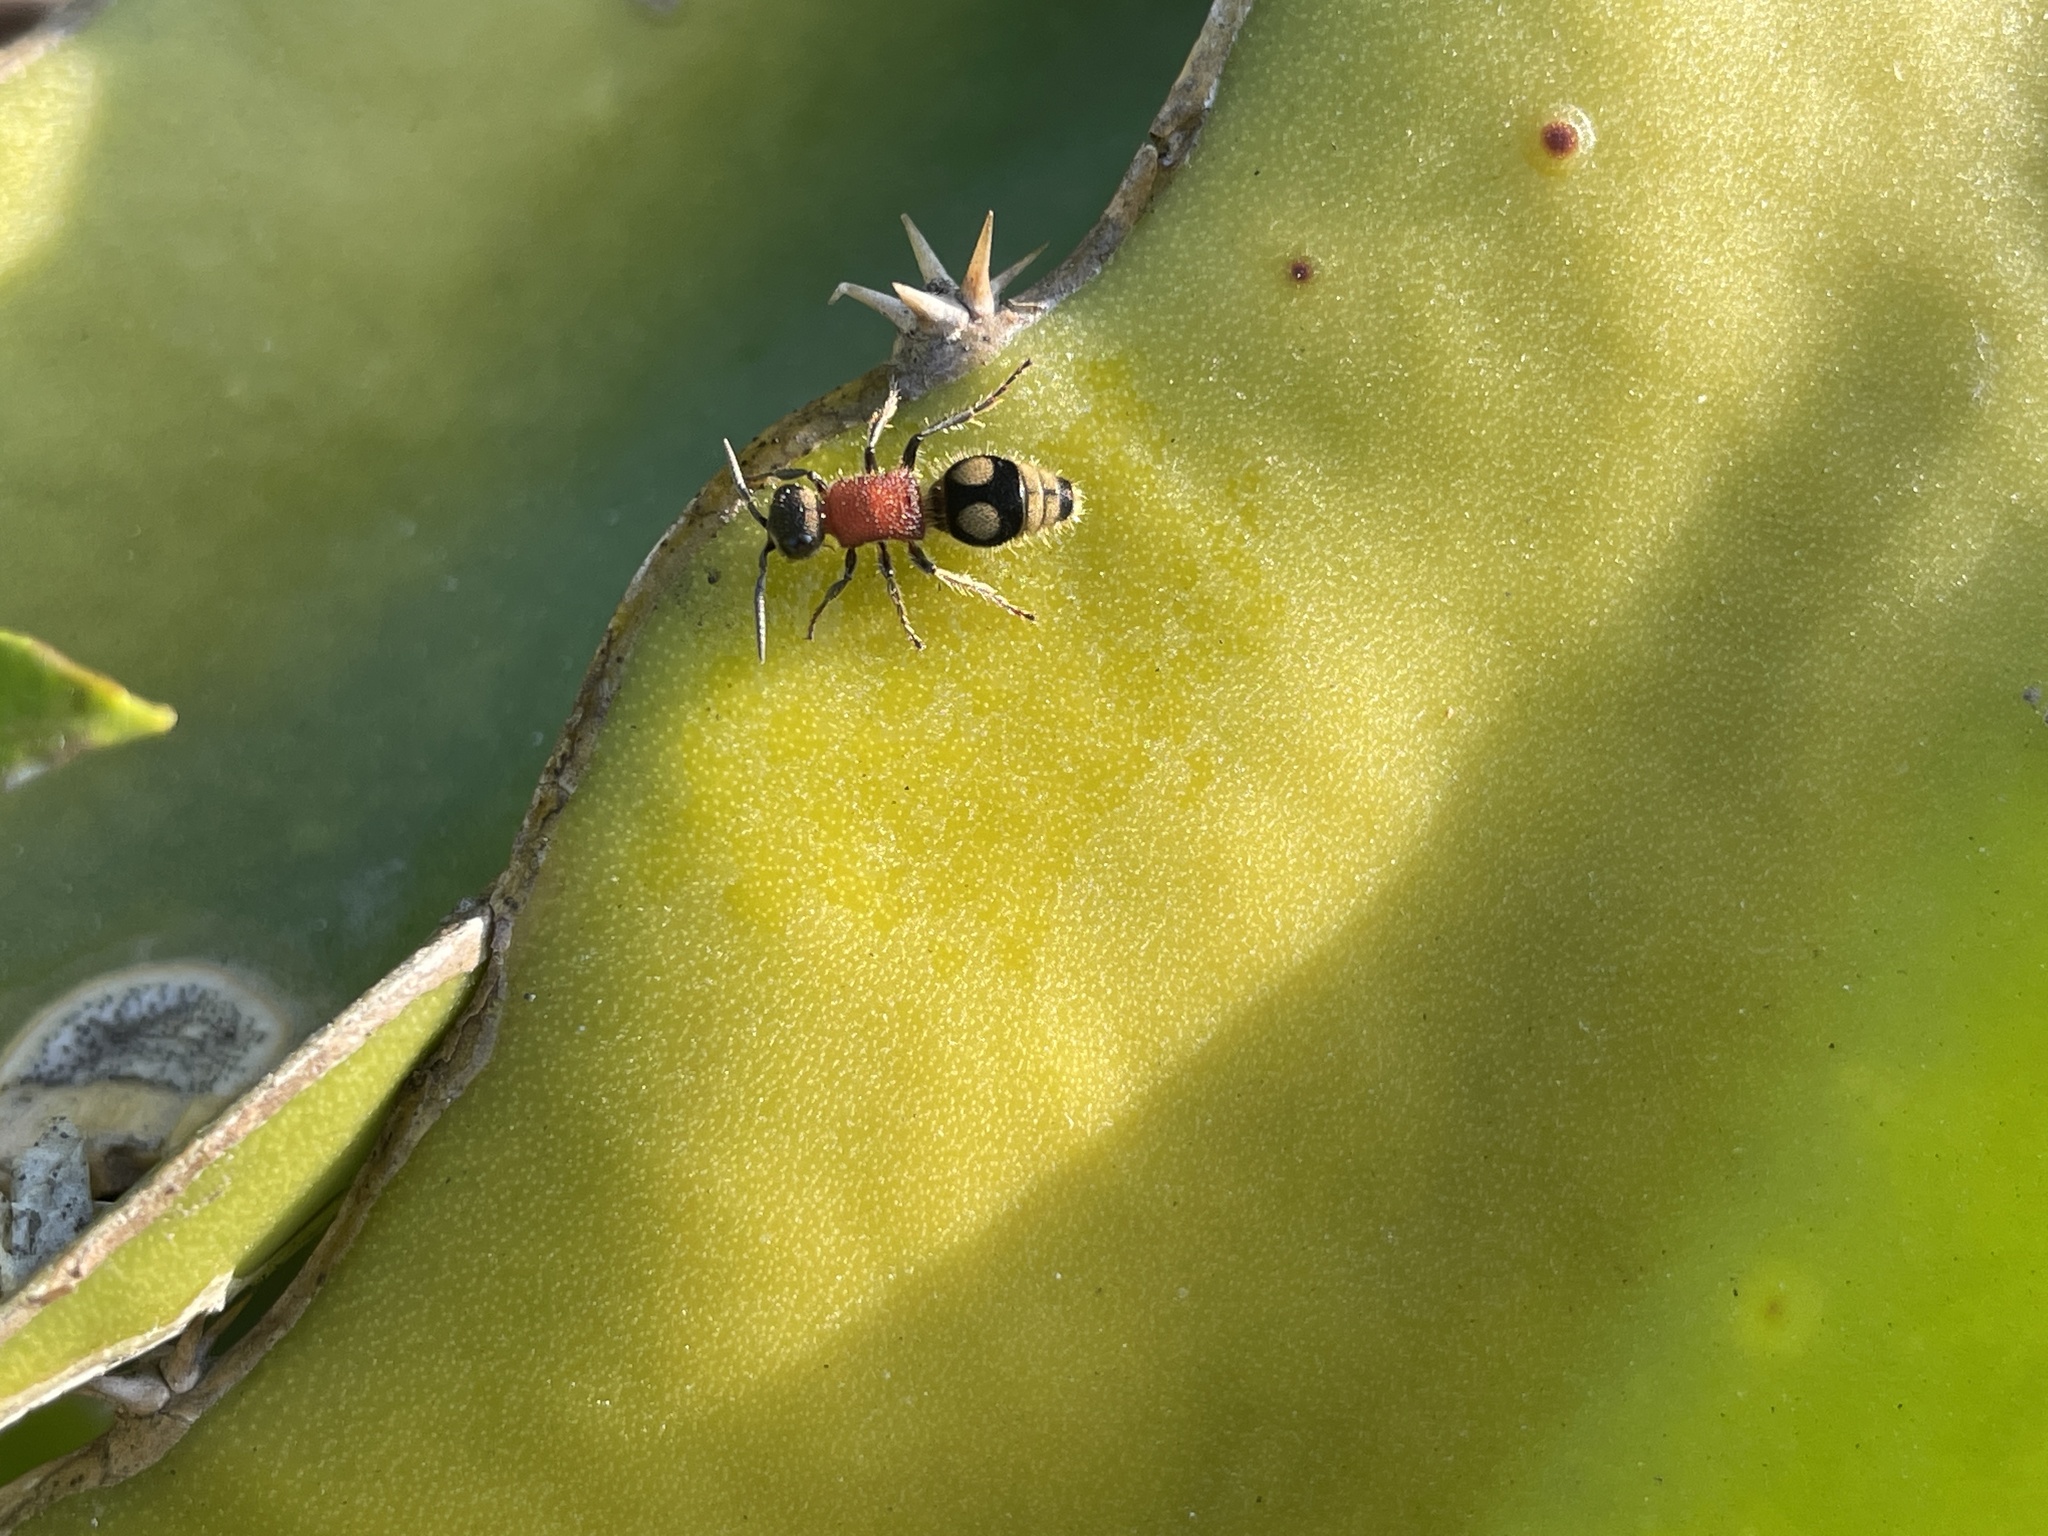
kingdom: Animalia
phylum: Arthropoda
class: Insecta
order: Hymenoptera
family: Mutillidae
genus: Mutilla
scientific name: Mutilla auroguttata
